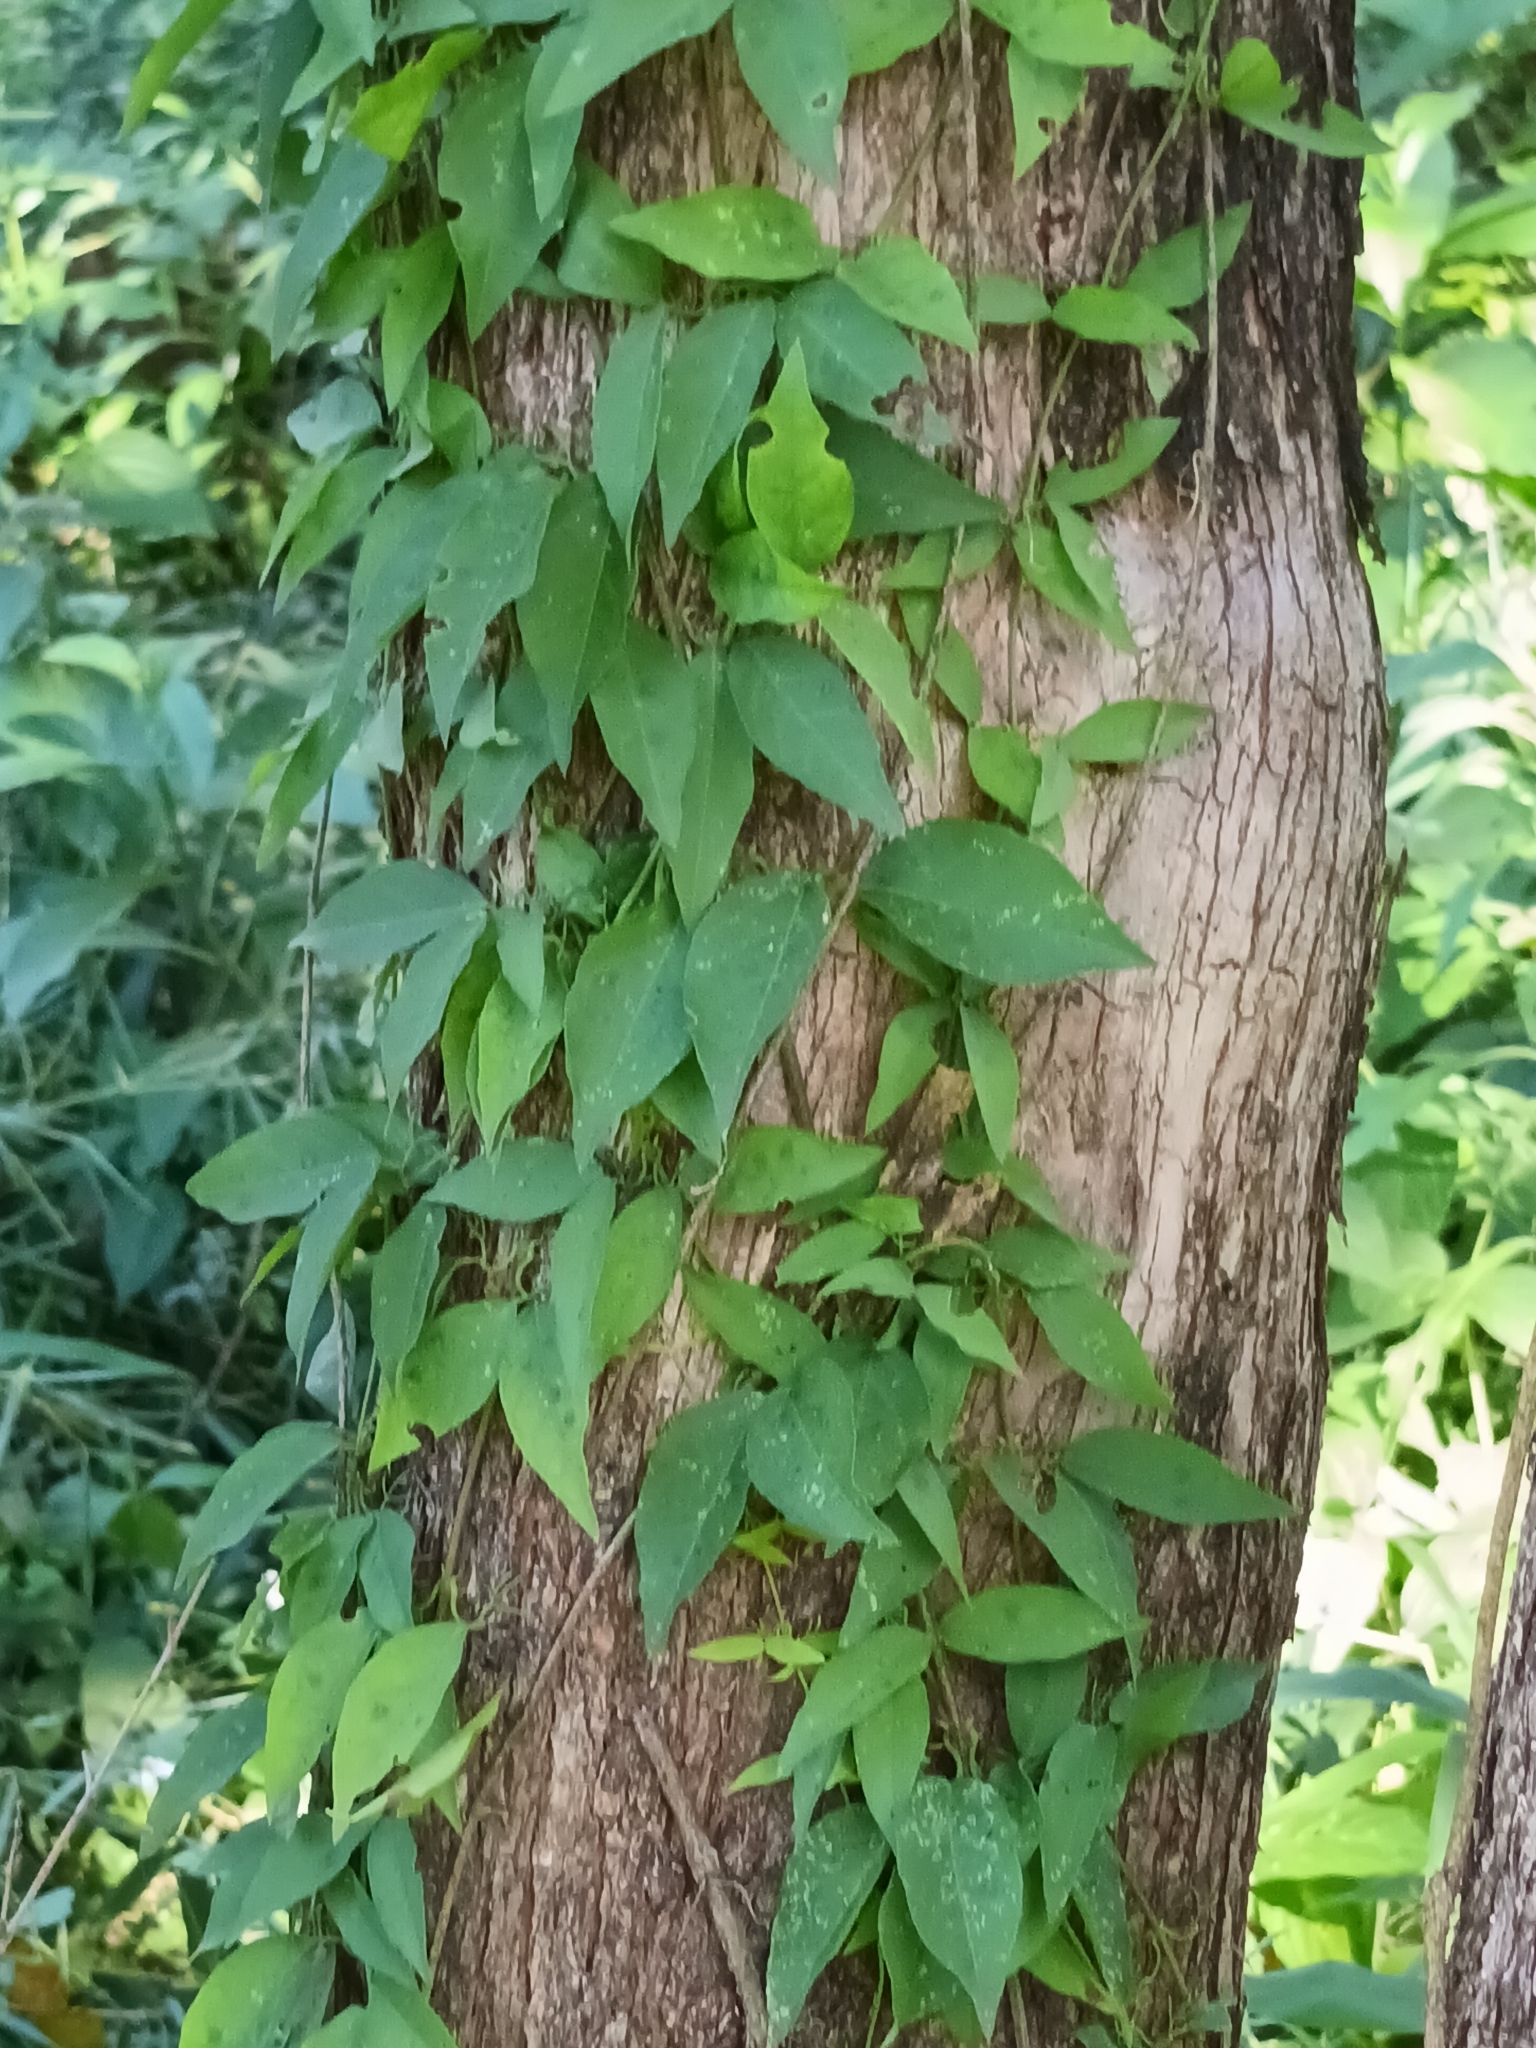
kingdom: Plantae
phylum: Tracheophyta
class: Magnoliopsida
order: Lamiales
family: Bignoniaceae
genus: Dolichandra
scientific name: Dolichandra unguis-cati
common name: Catclaw vine
